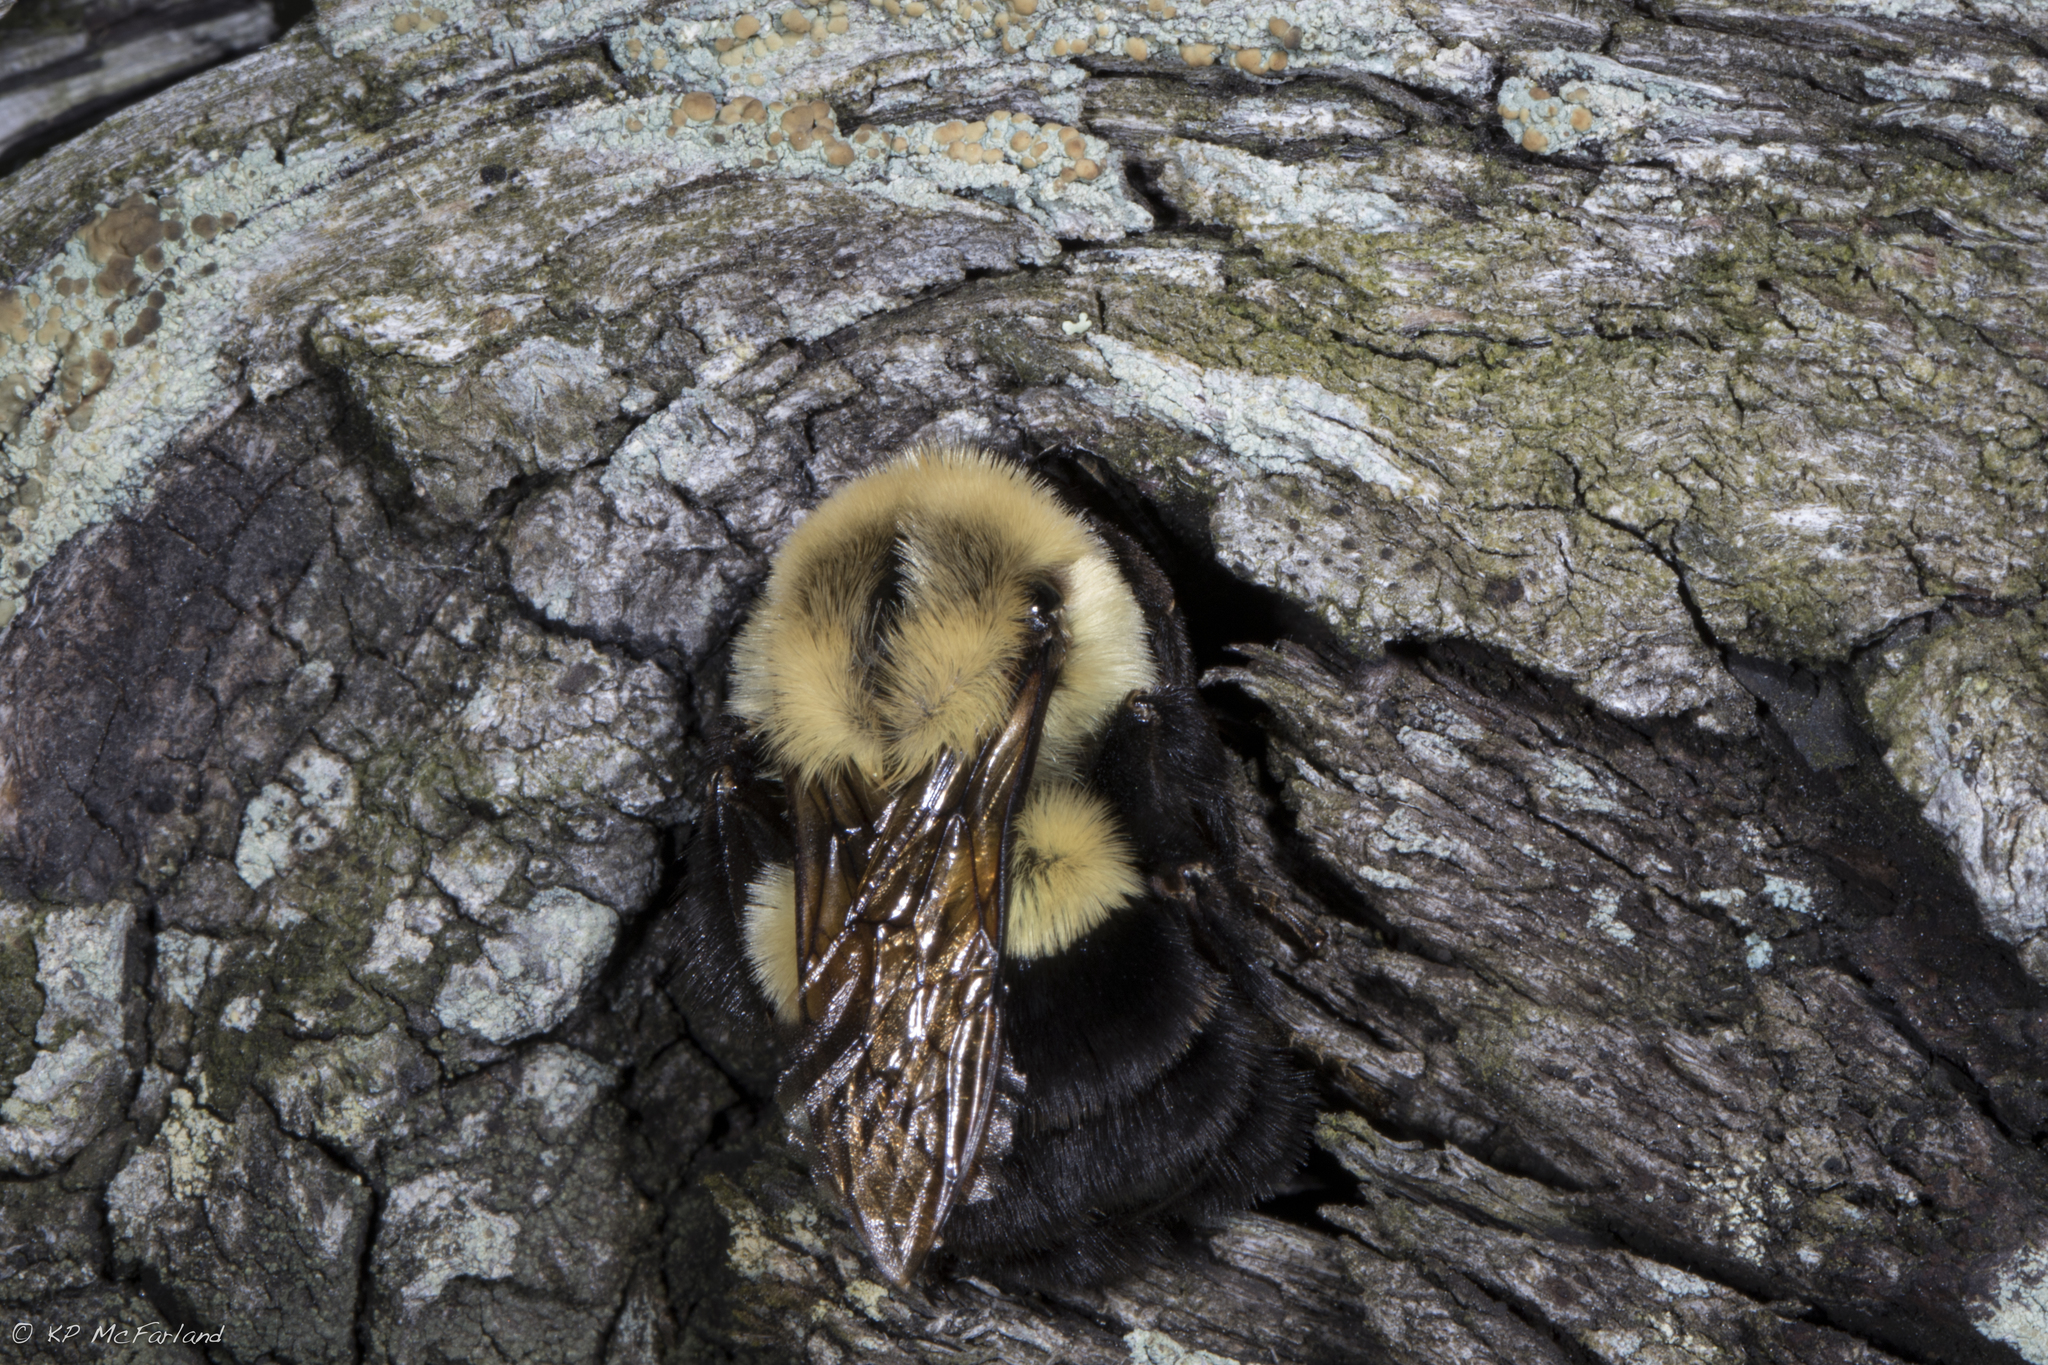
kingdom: Animalia
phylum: Arthropoda
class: Insecta
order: Hymenoptera
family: Apidae
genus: Bombus
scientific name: Bombus impatiens
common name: Common eastern bumble bee
